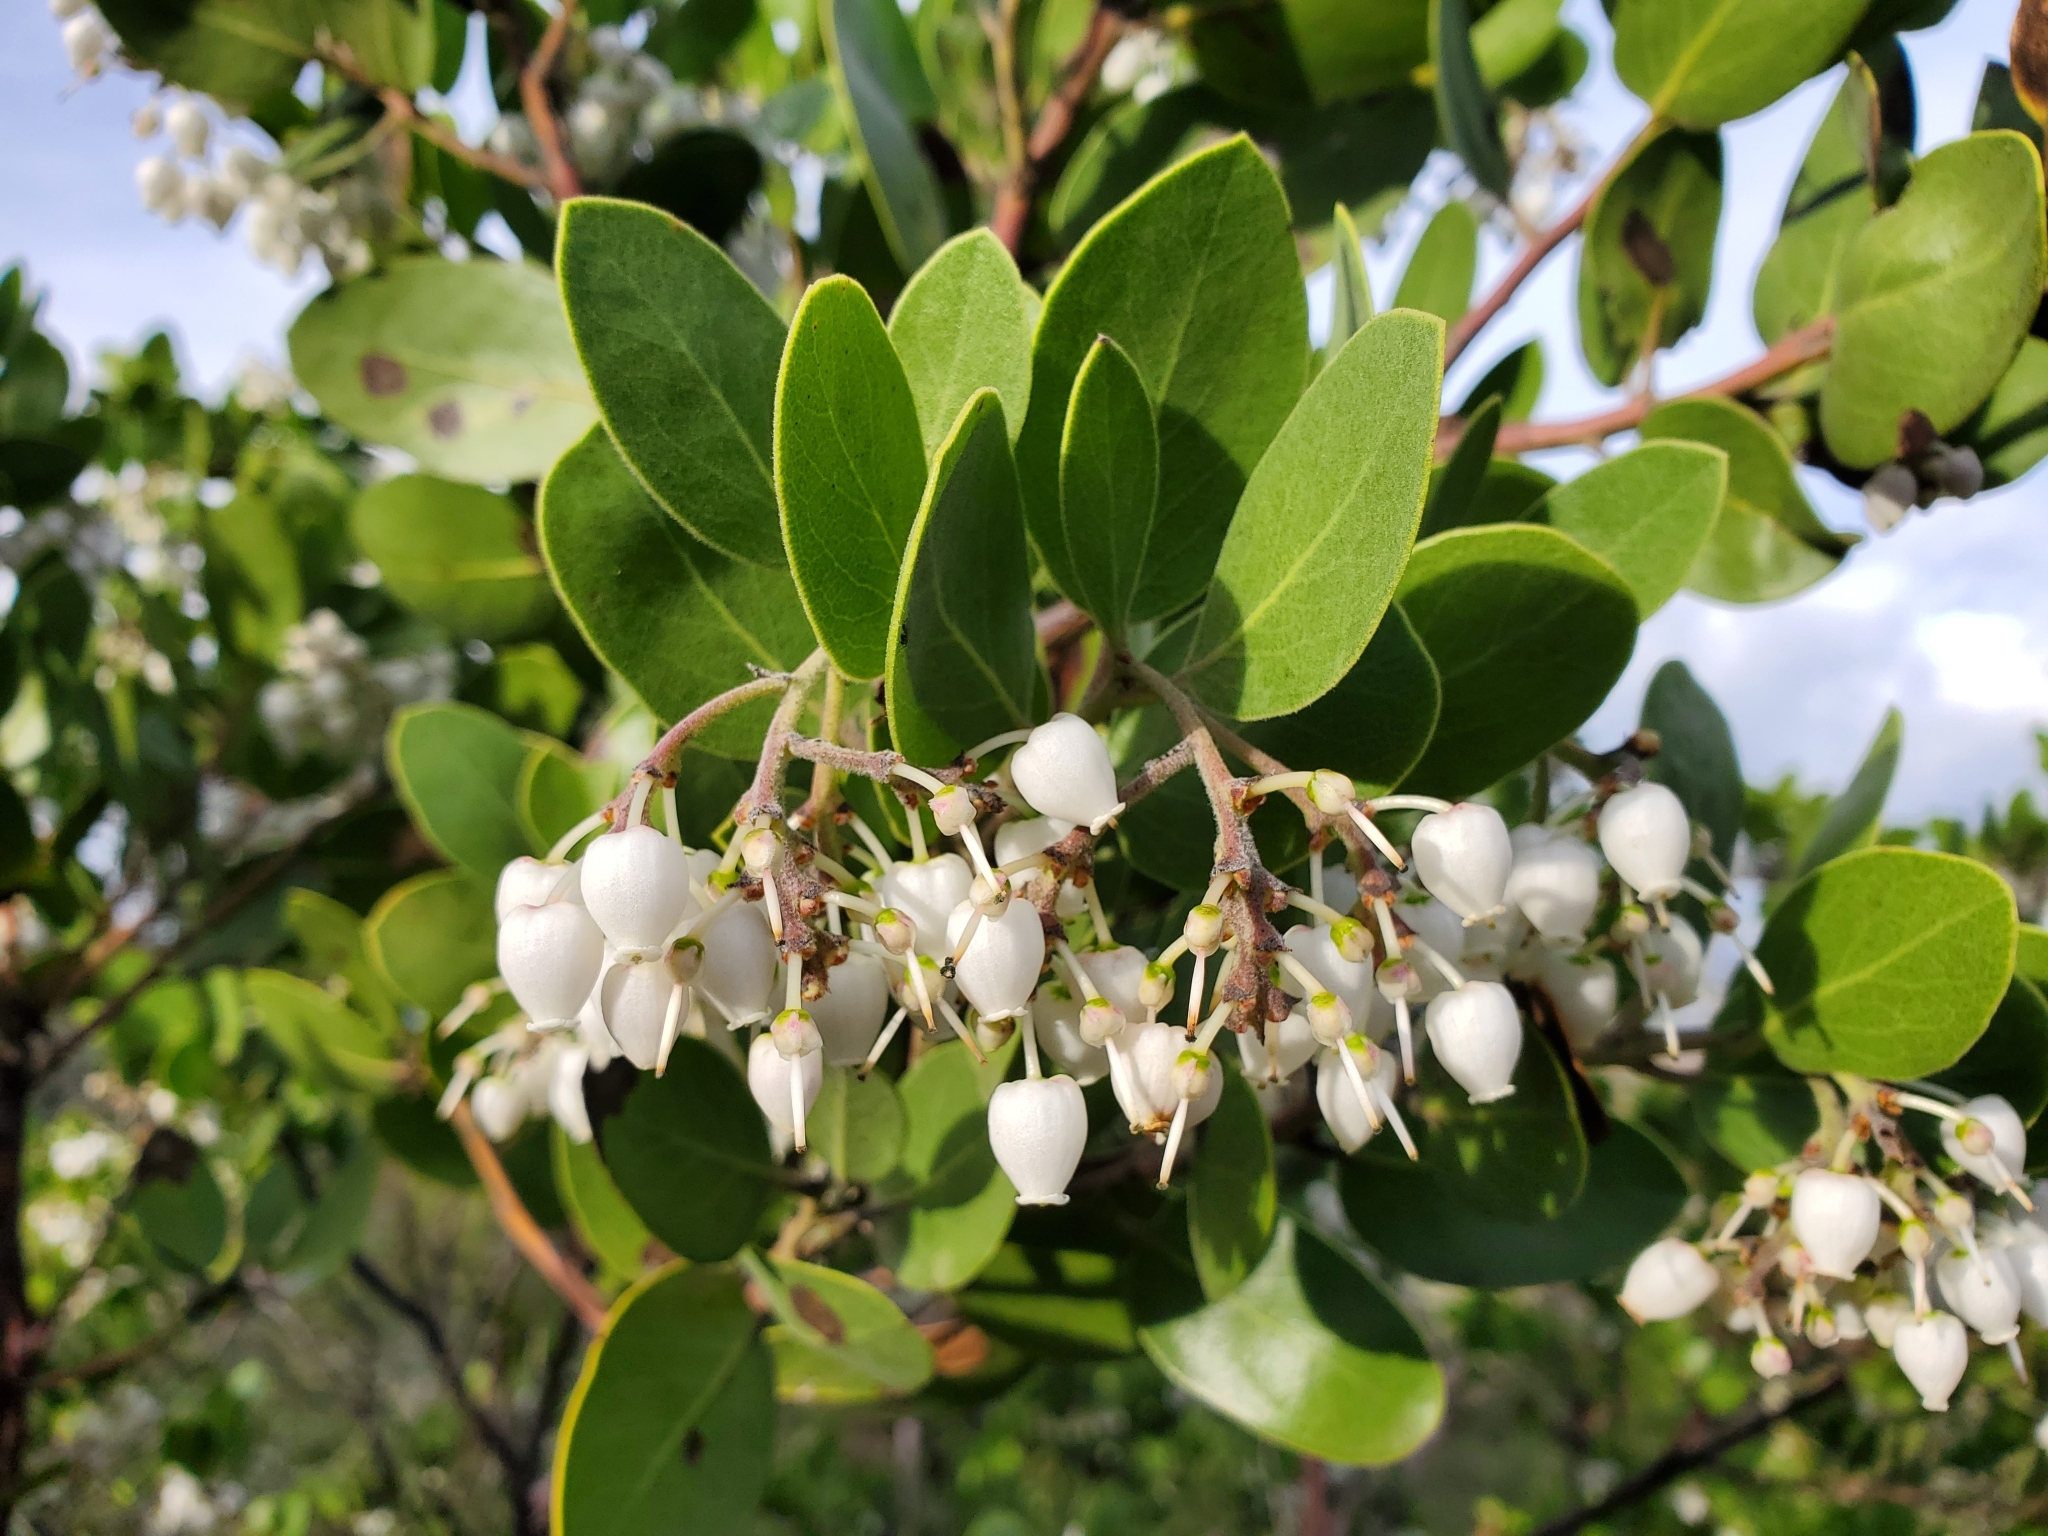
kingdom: Plantae
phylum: Tracheophyta
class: Magnoliopsida
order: Ericales
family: Ericaceae
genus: Arctostaphylos
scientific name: Arctostaphylos manzanita
